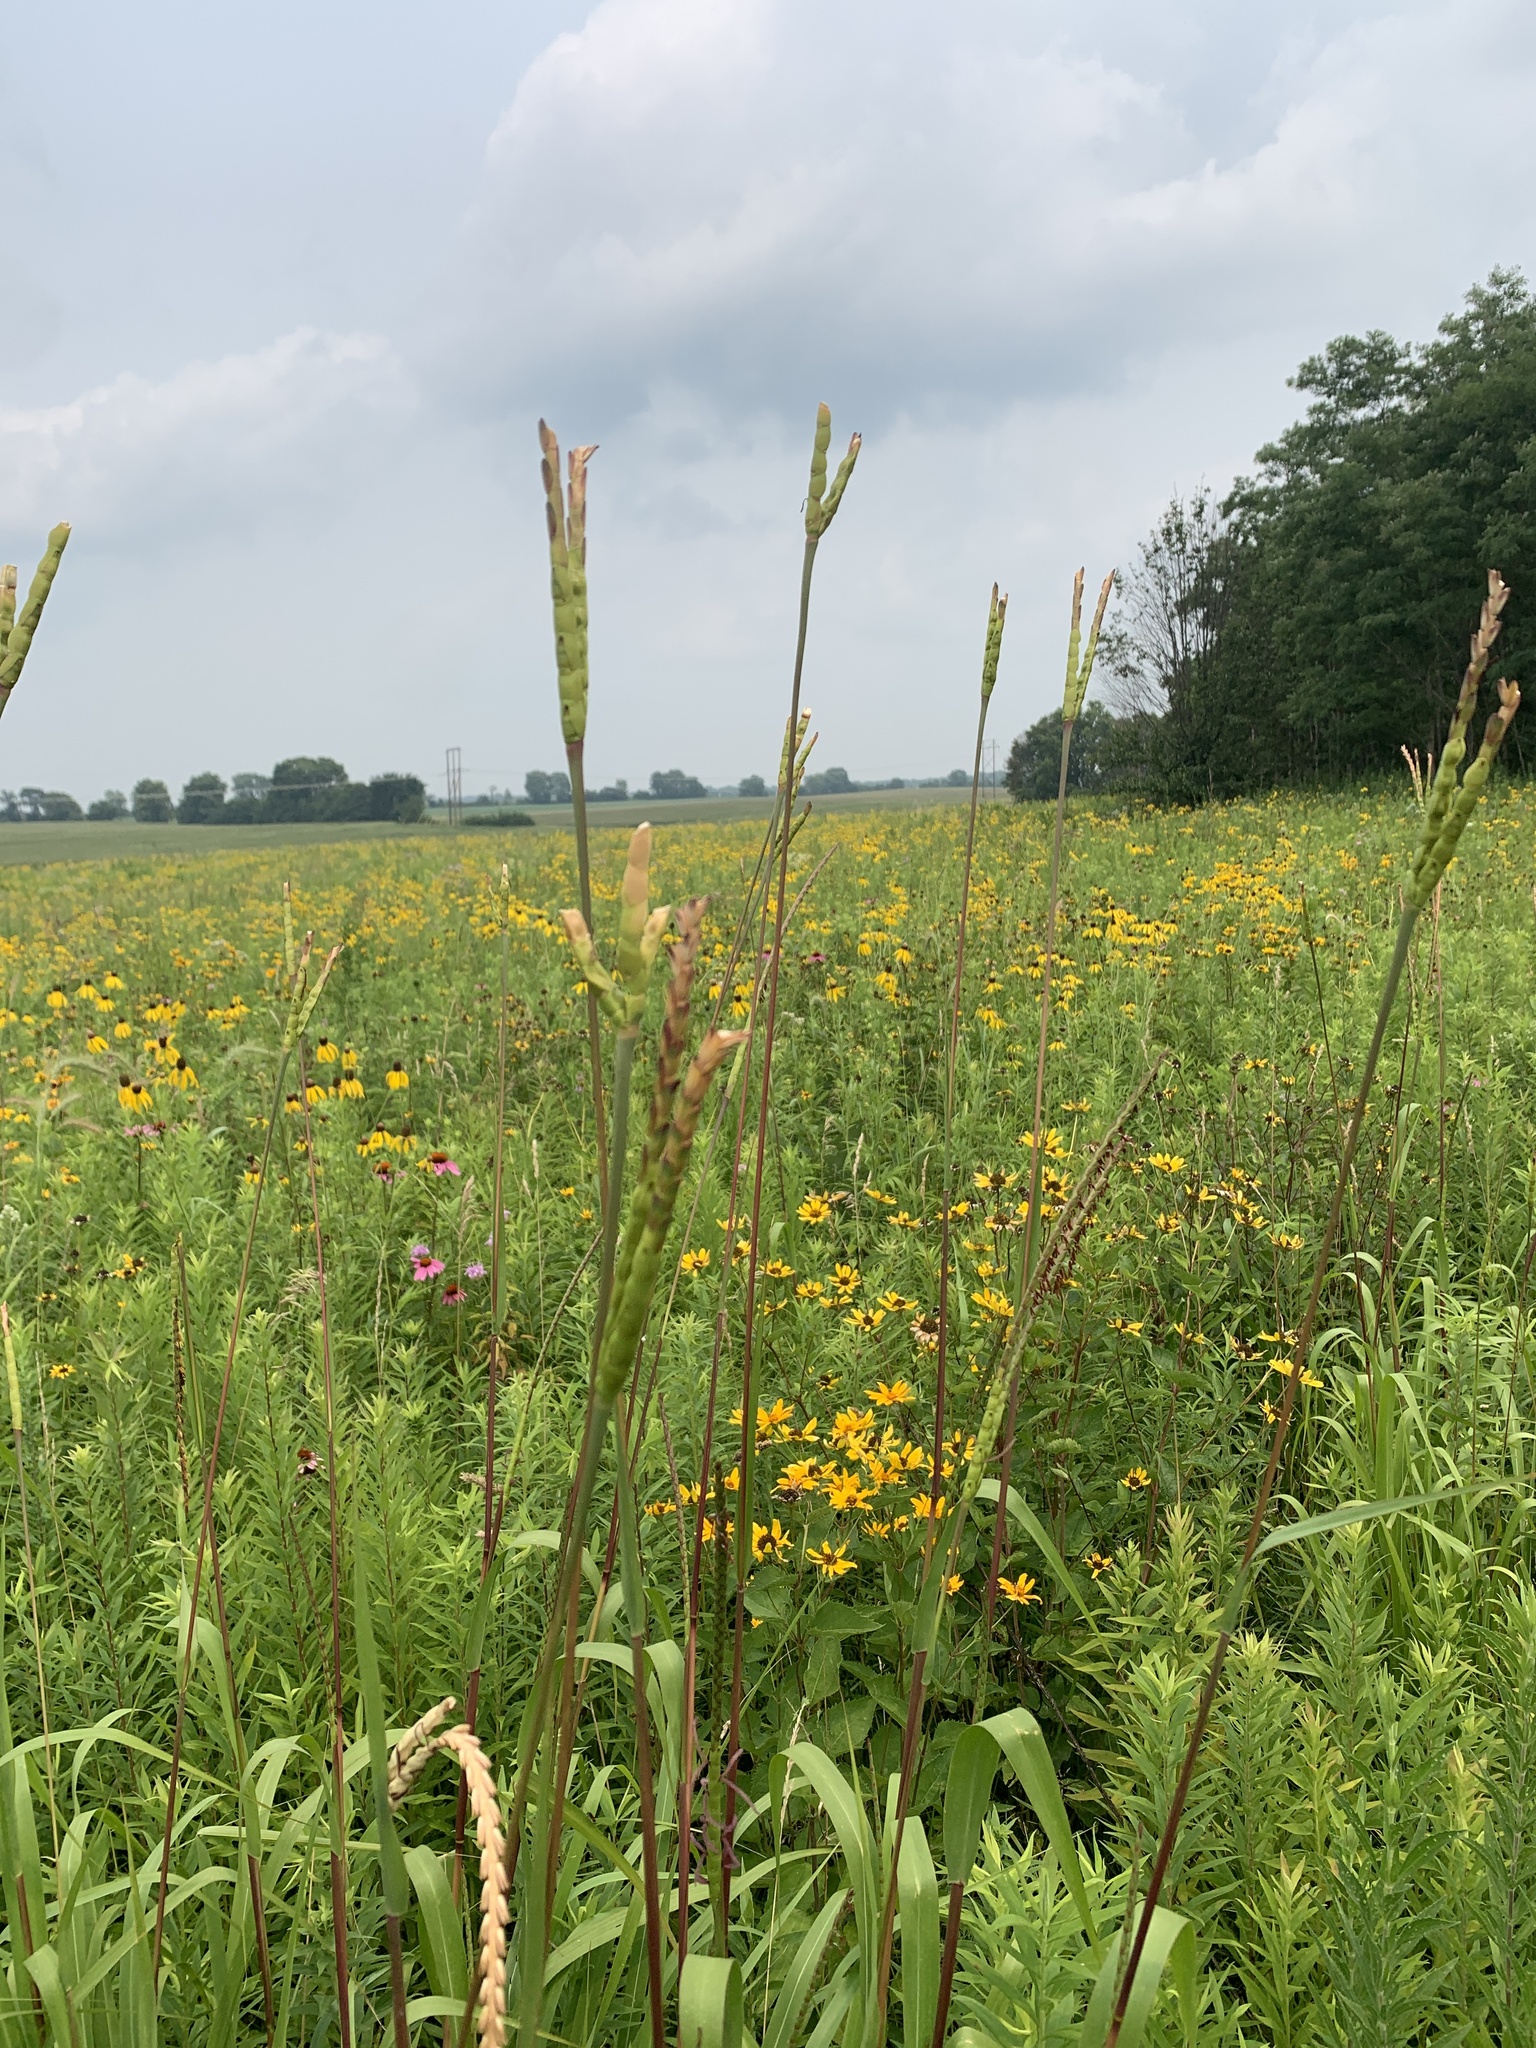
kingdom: Plantae
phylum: Tracheophyta
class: Liliopsida
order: Poales
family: Poaceae
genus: Tripsacum
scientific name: Tripsacum dactyloides
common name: Buffalo-grass
